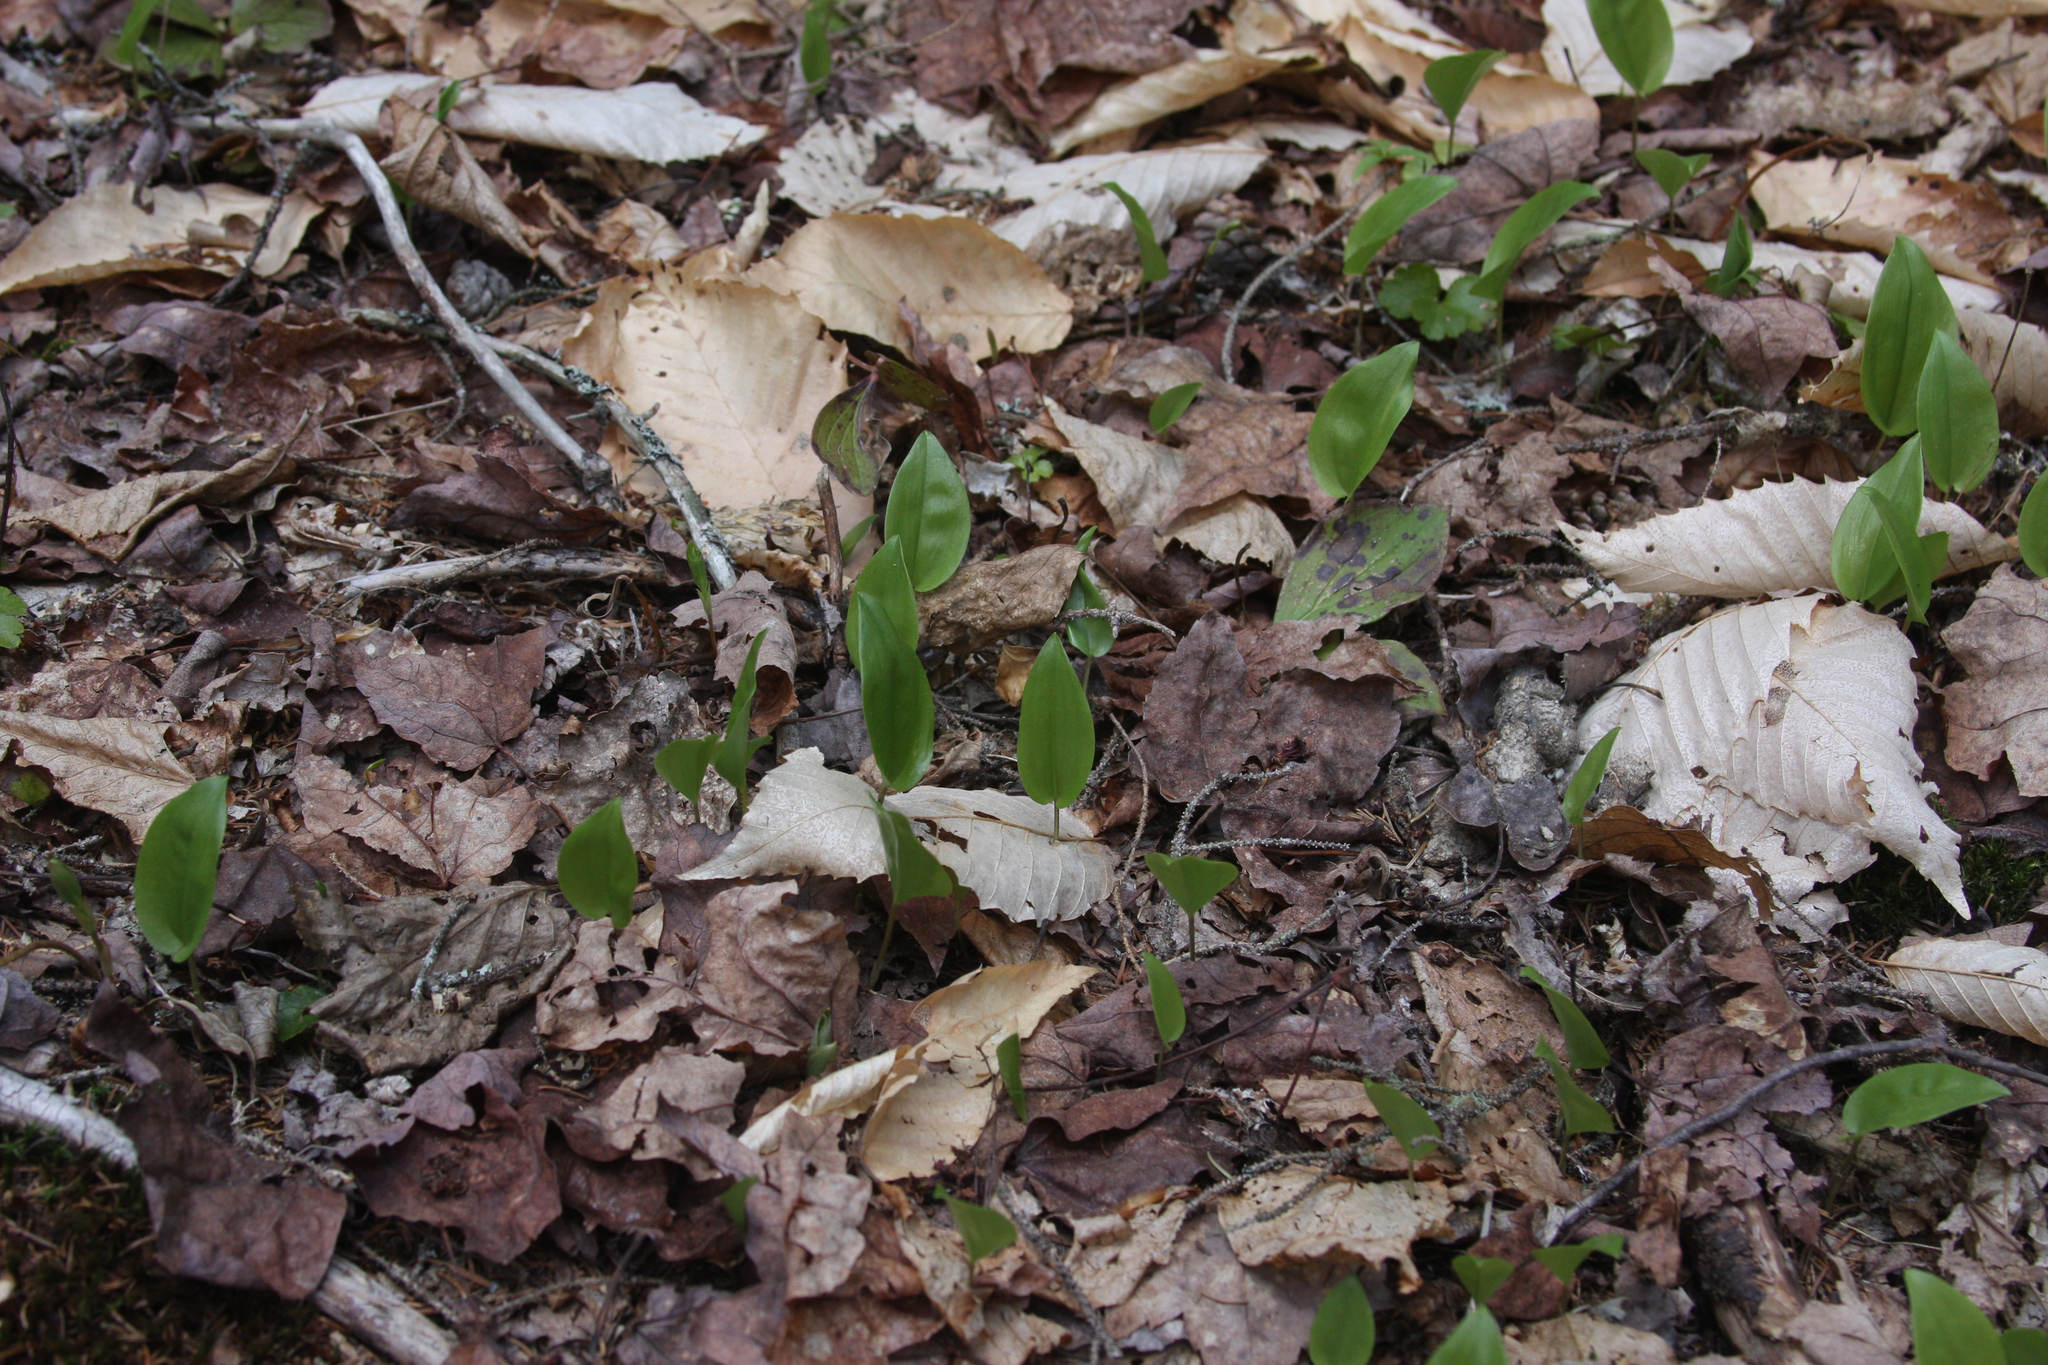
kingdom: Plantae
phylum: Tracheophyta
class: Liliopsida
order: Asparagales
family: Asparagaceae
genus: Maianthemum
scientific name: Maianthemum canadense
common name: False lily-of-the-valley
